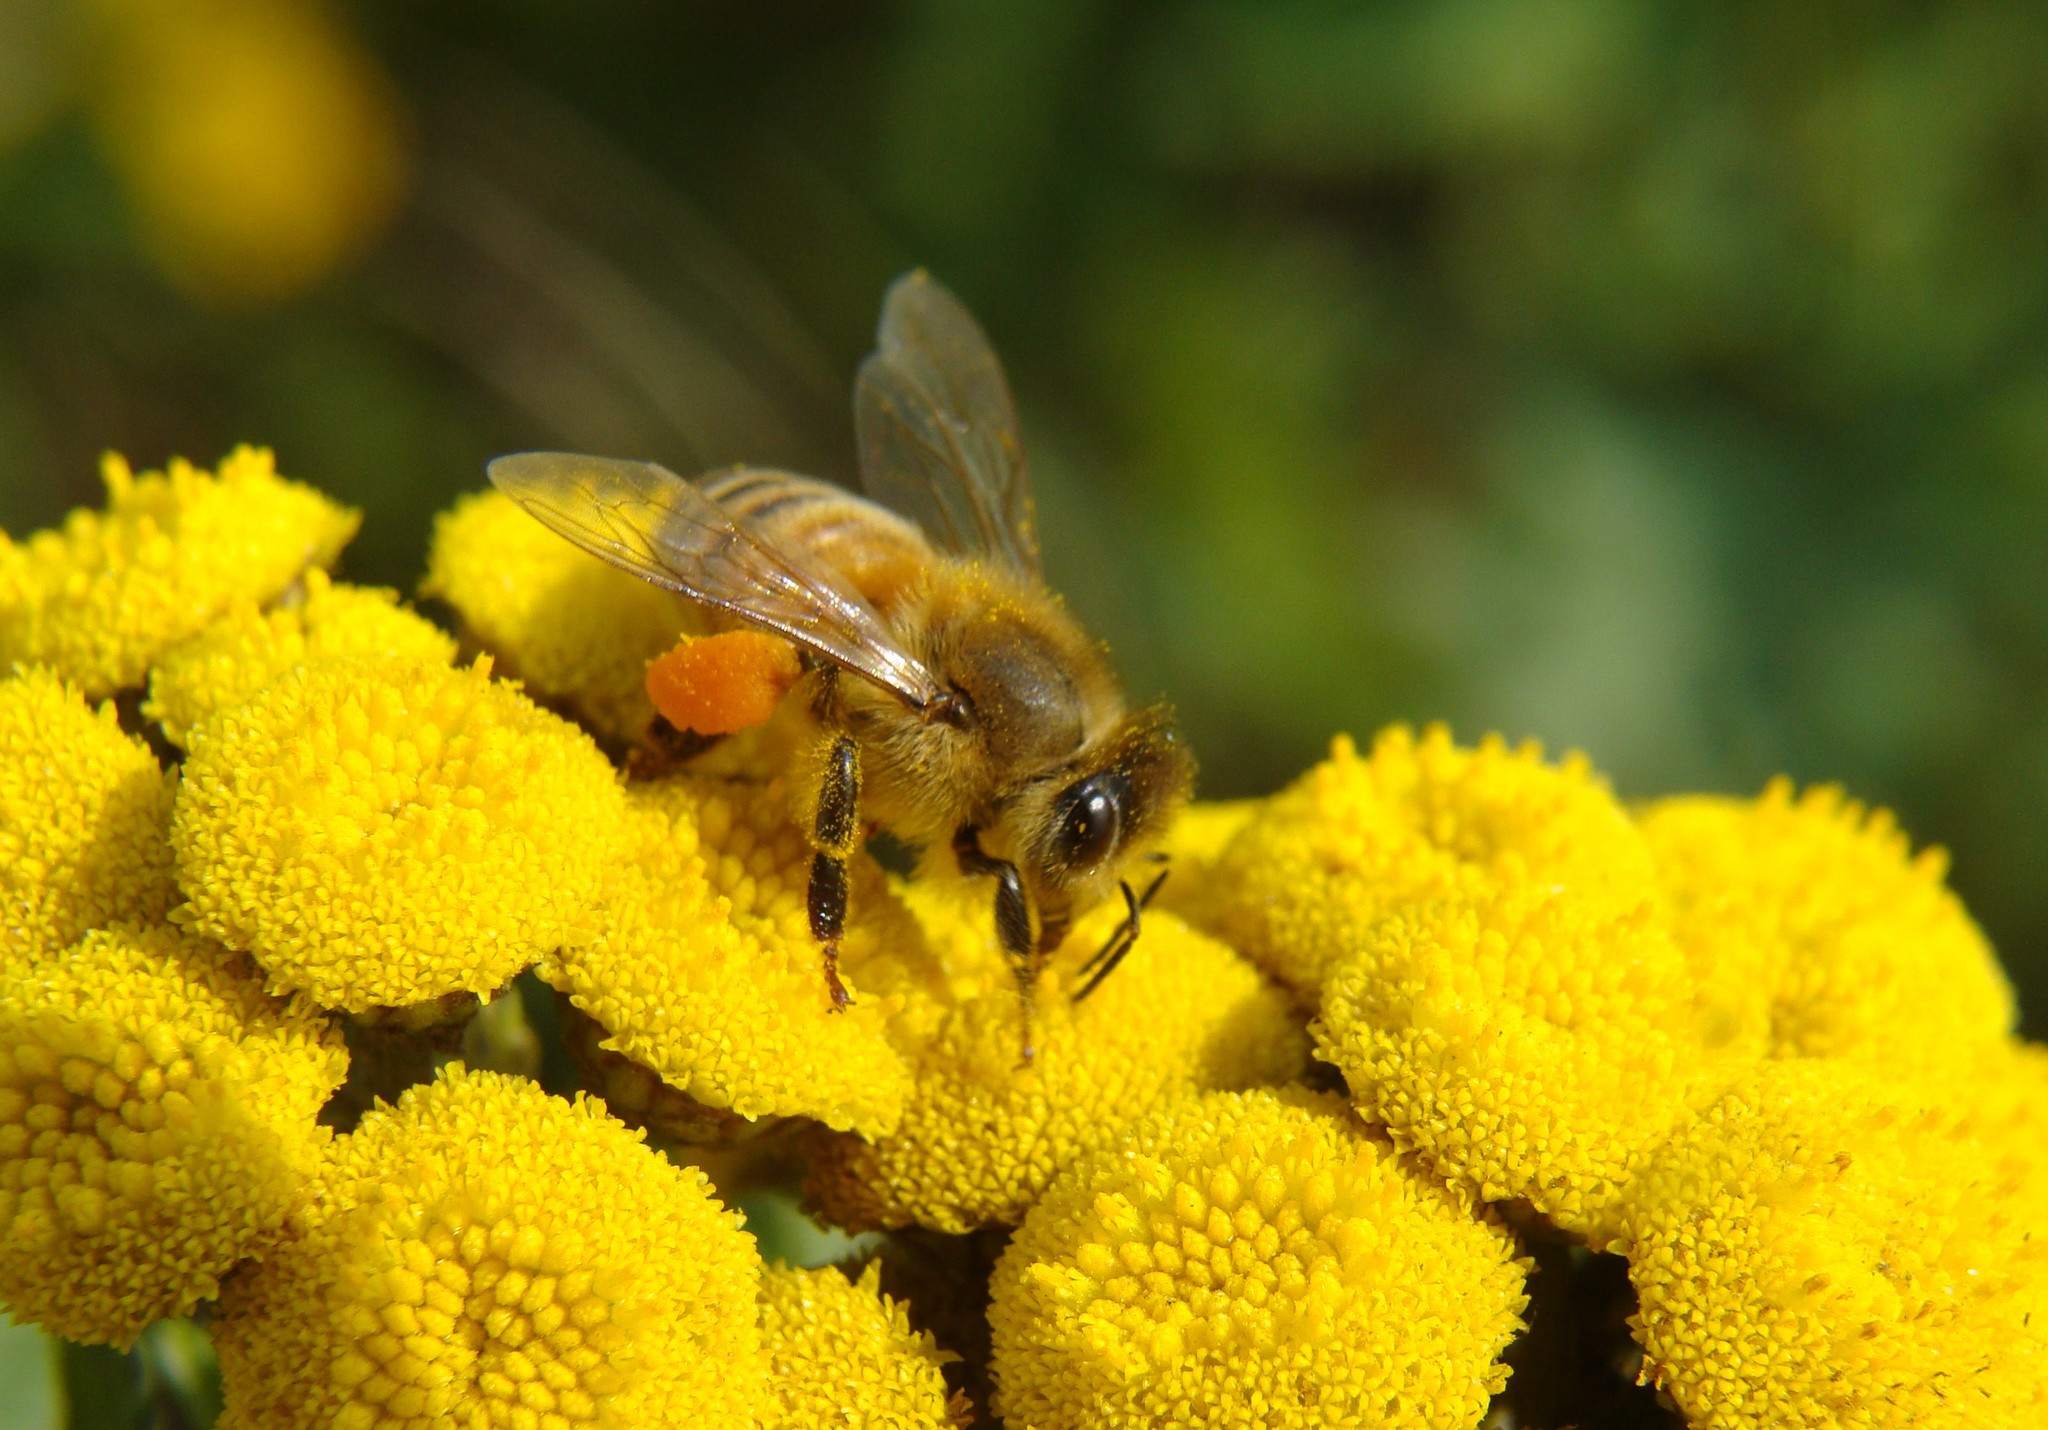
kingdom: Animalia
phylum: Arthropoda
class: Insecta
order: Hymenoptera
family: Apidae
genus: Apis
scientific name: Apis mellifera
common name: Honey bee
